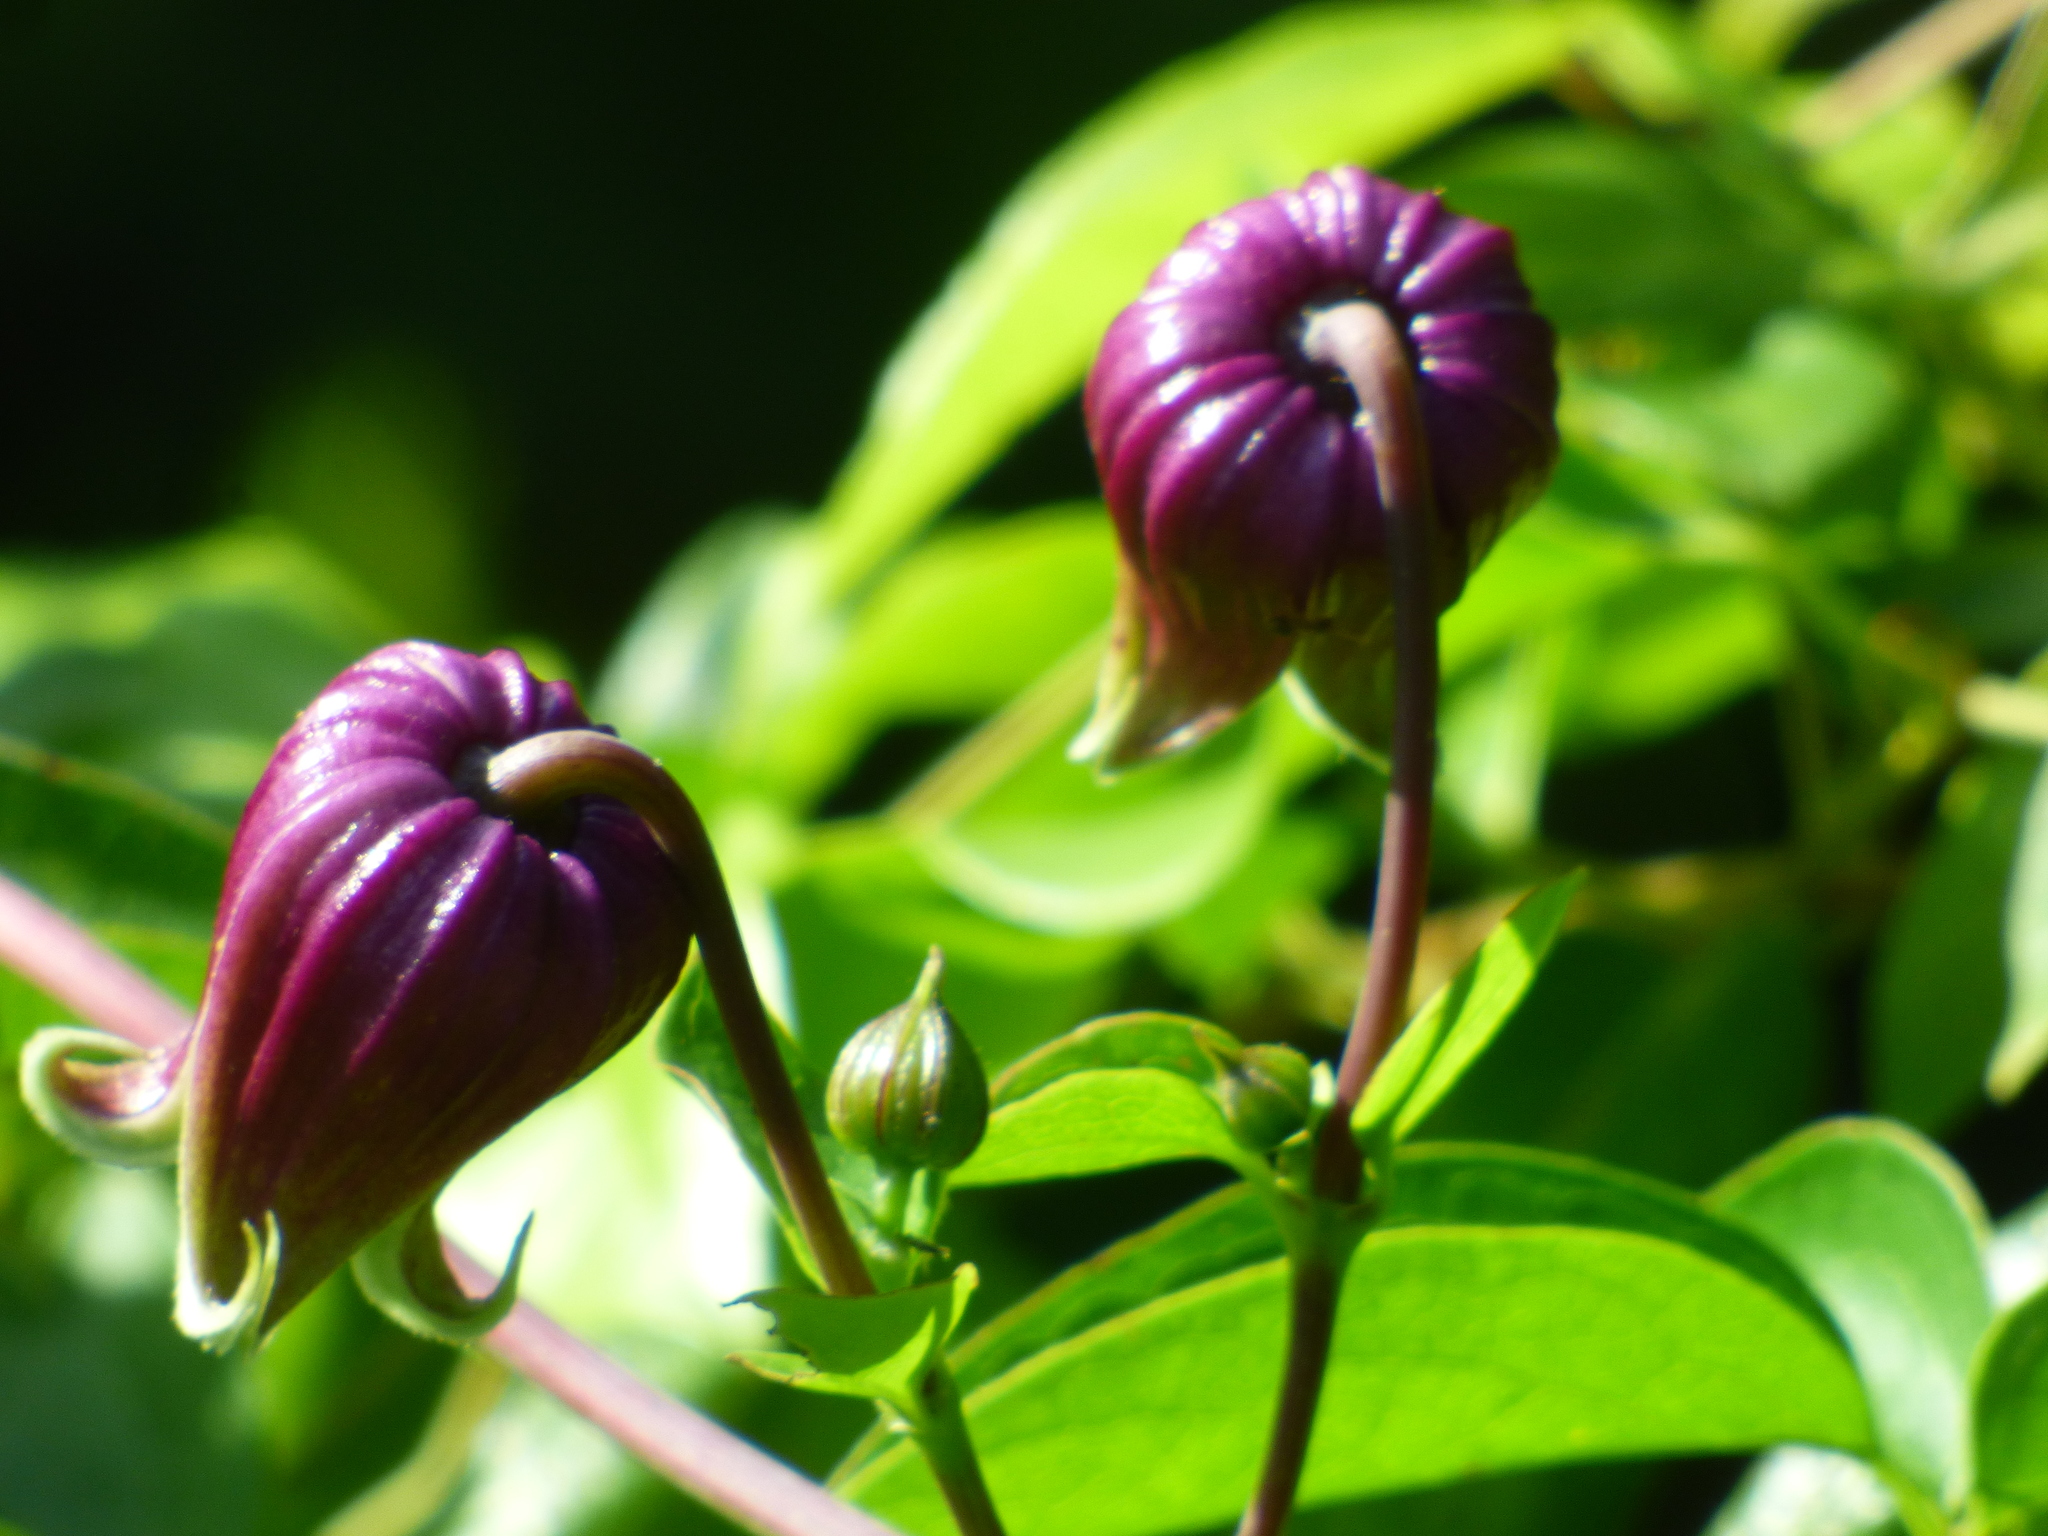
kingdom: Plantae
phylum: Tracheophyta
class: Magnoliopsida
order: Ranunculales
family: Ranunculaceae
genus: Clematis
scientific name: Clematis viorna
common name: Leather-flower
